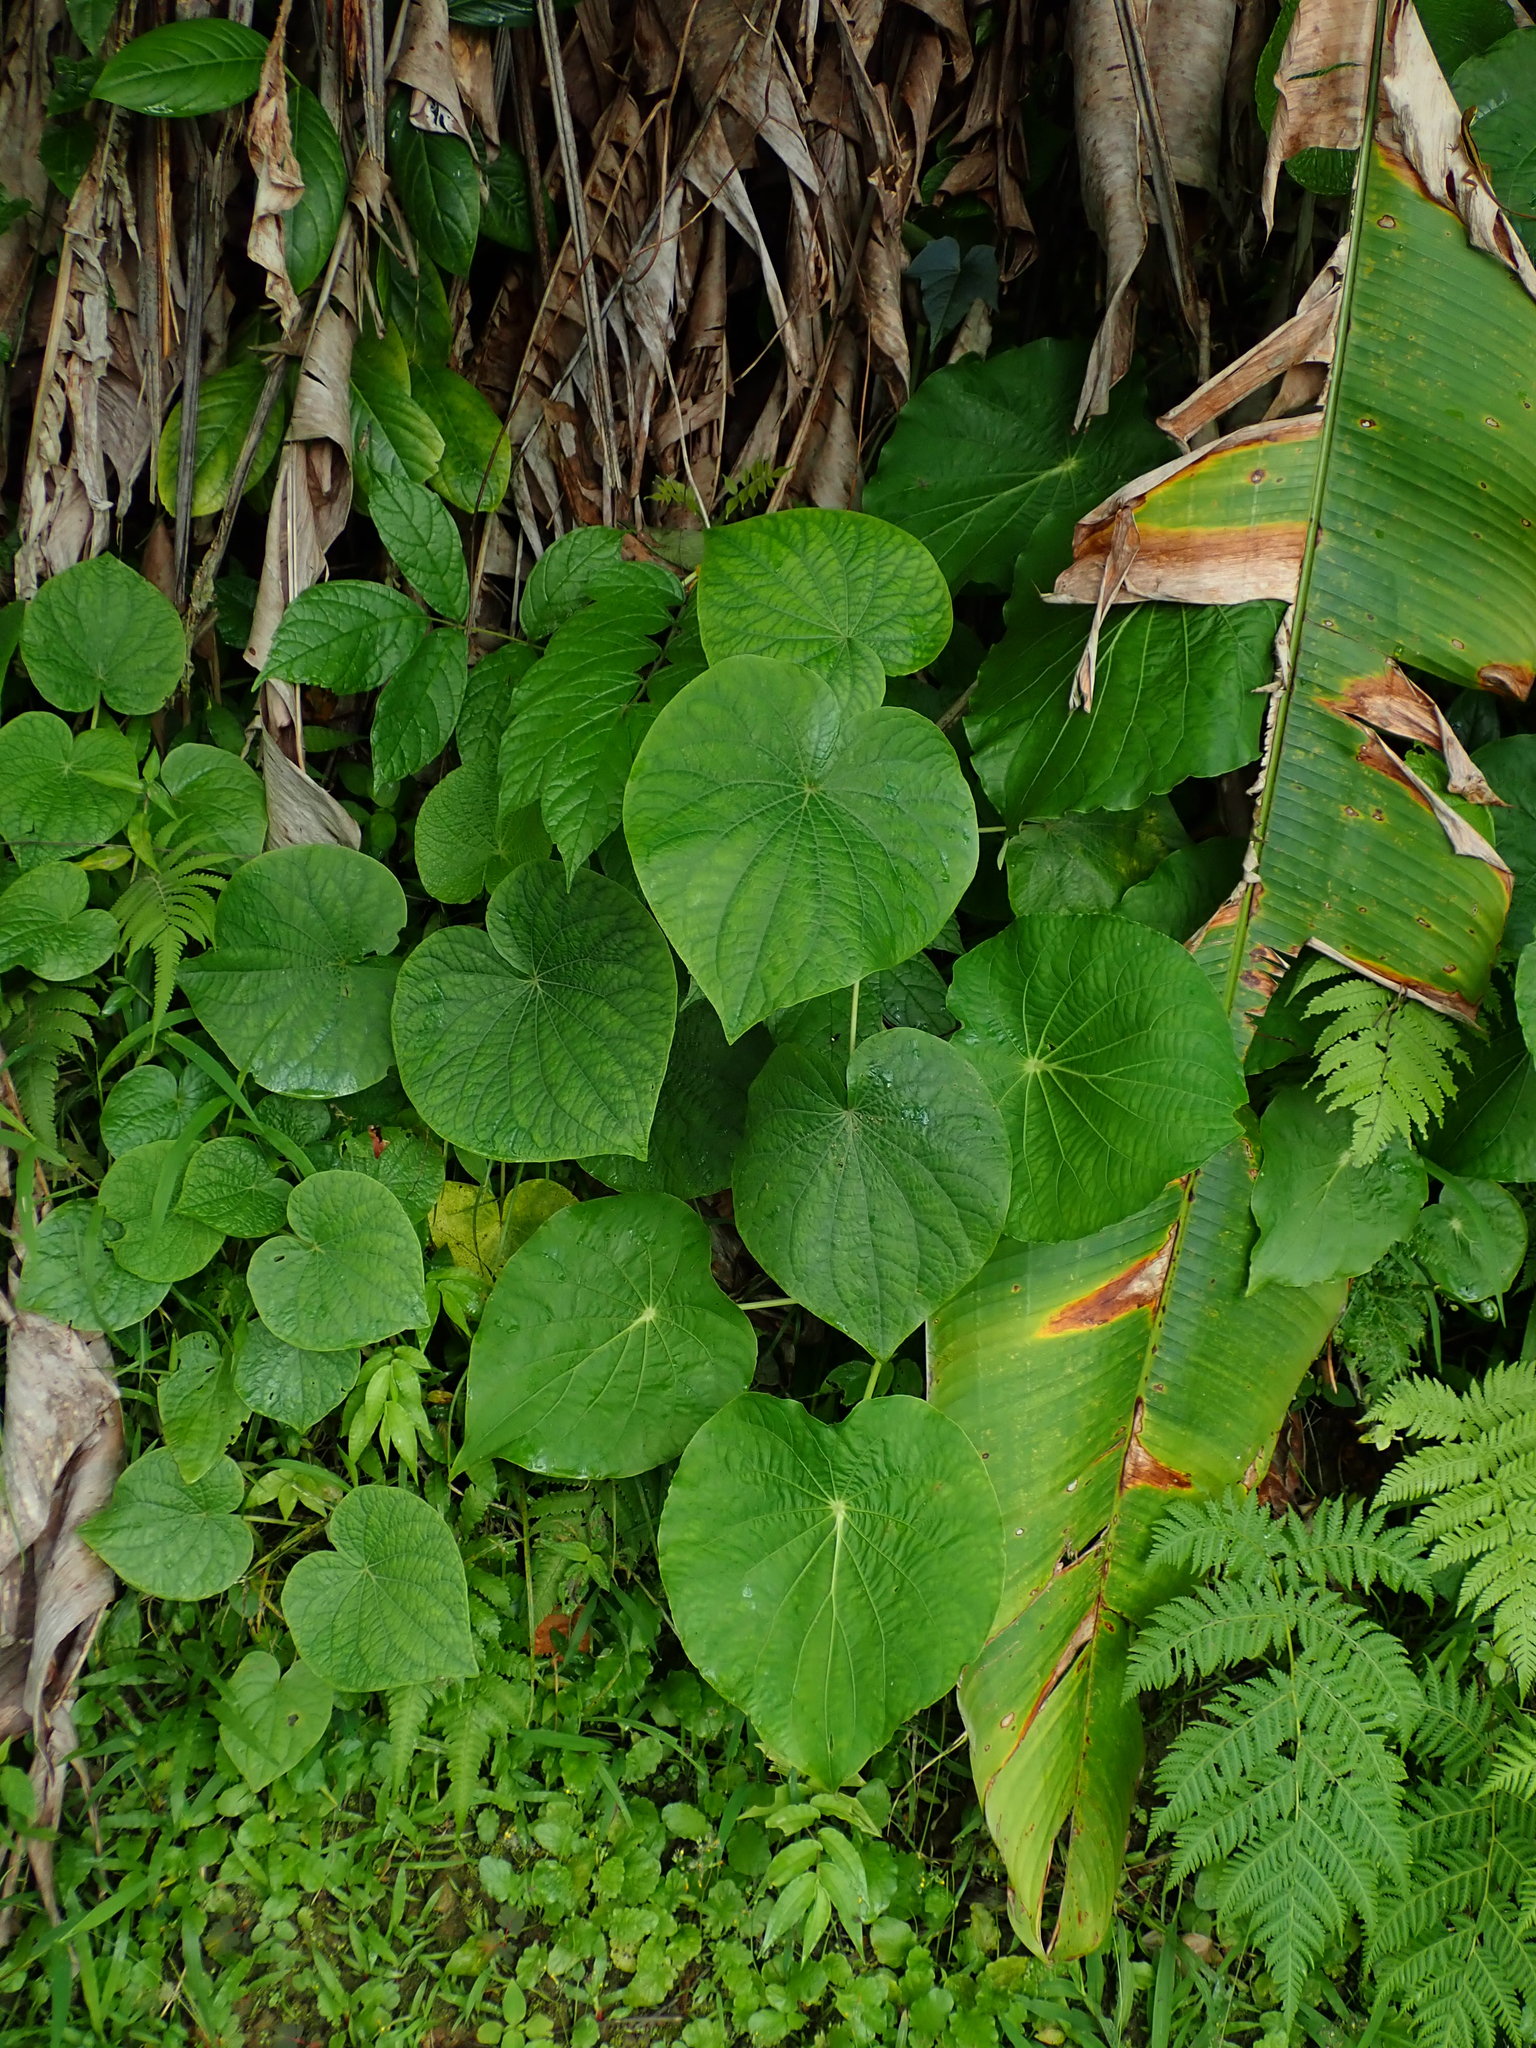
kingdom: Plantae
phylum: Tracheophyta
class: Magnoliopsida
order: Piperales
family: Piperaceae
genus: Piper
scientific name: Piper peltatum
